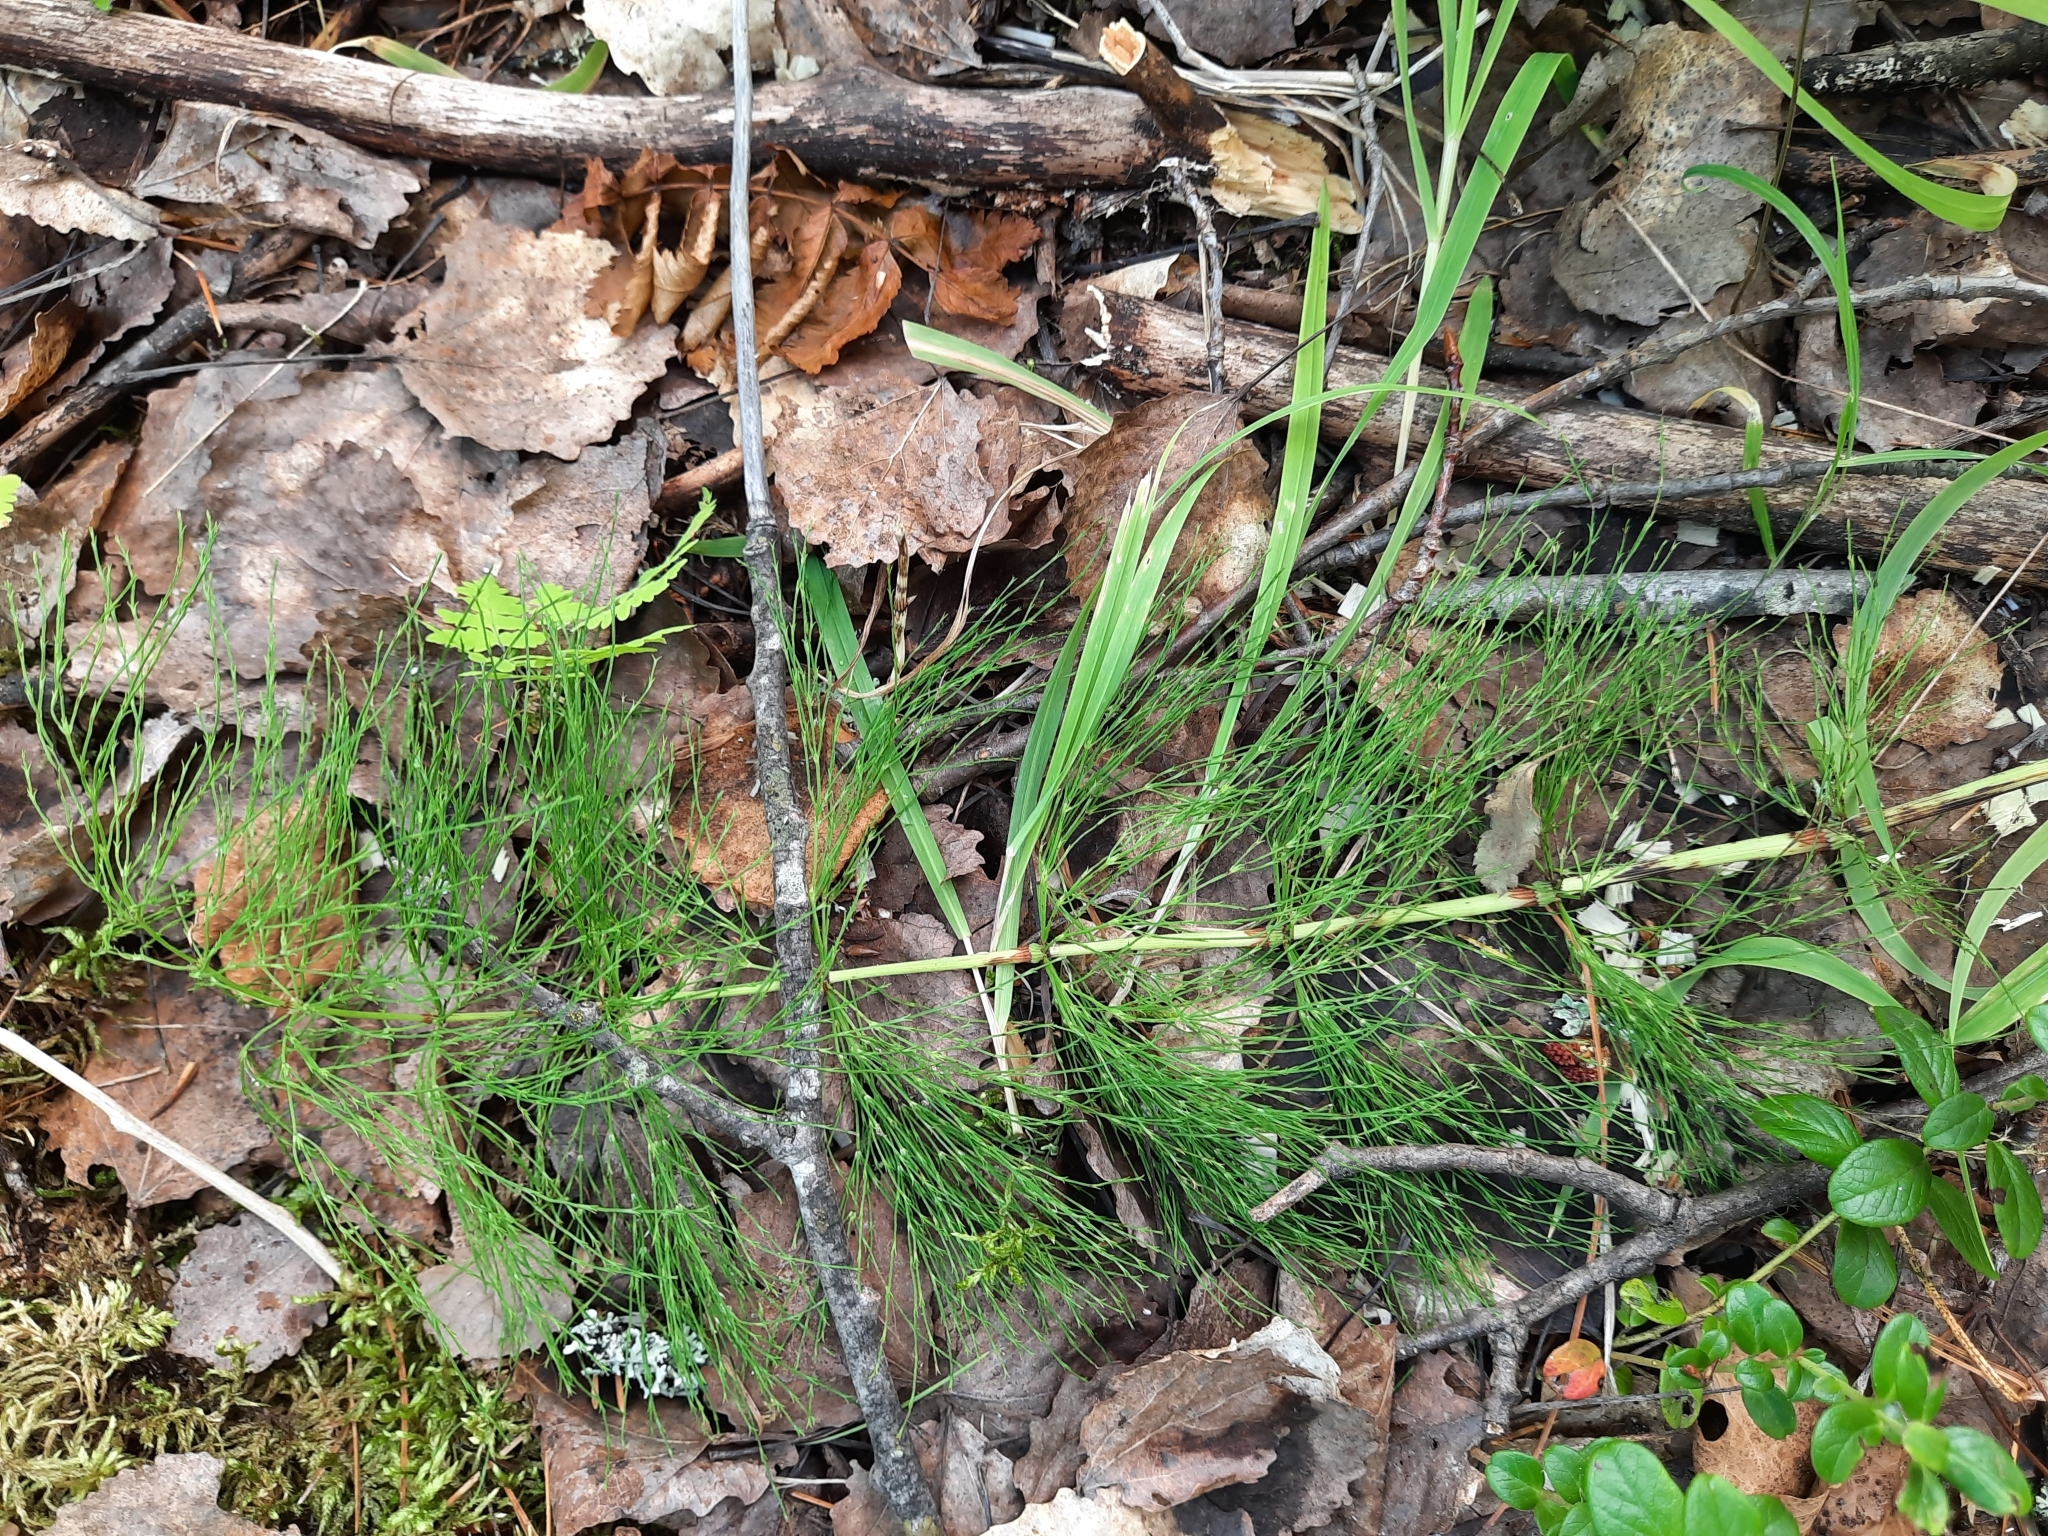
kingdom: Plantae
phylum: Tracheophyta
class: Polypodiopsida
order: Equisetales
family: Equisetaceae
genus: Equisetum
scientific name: Equisetum sylvaticum
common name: Wood horsetail
